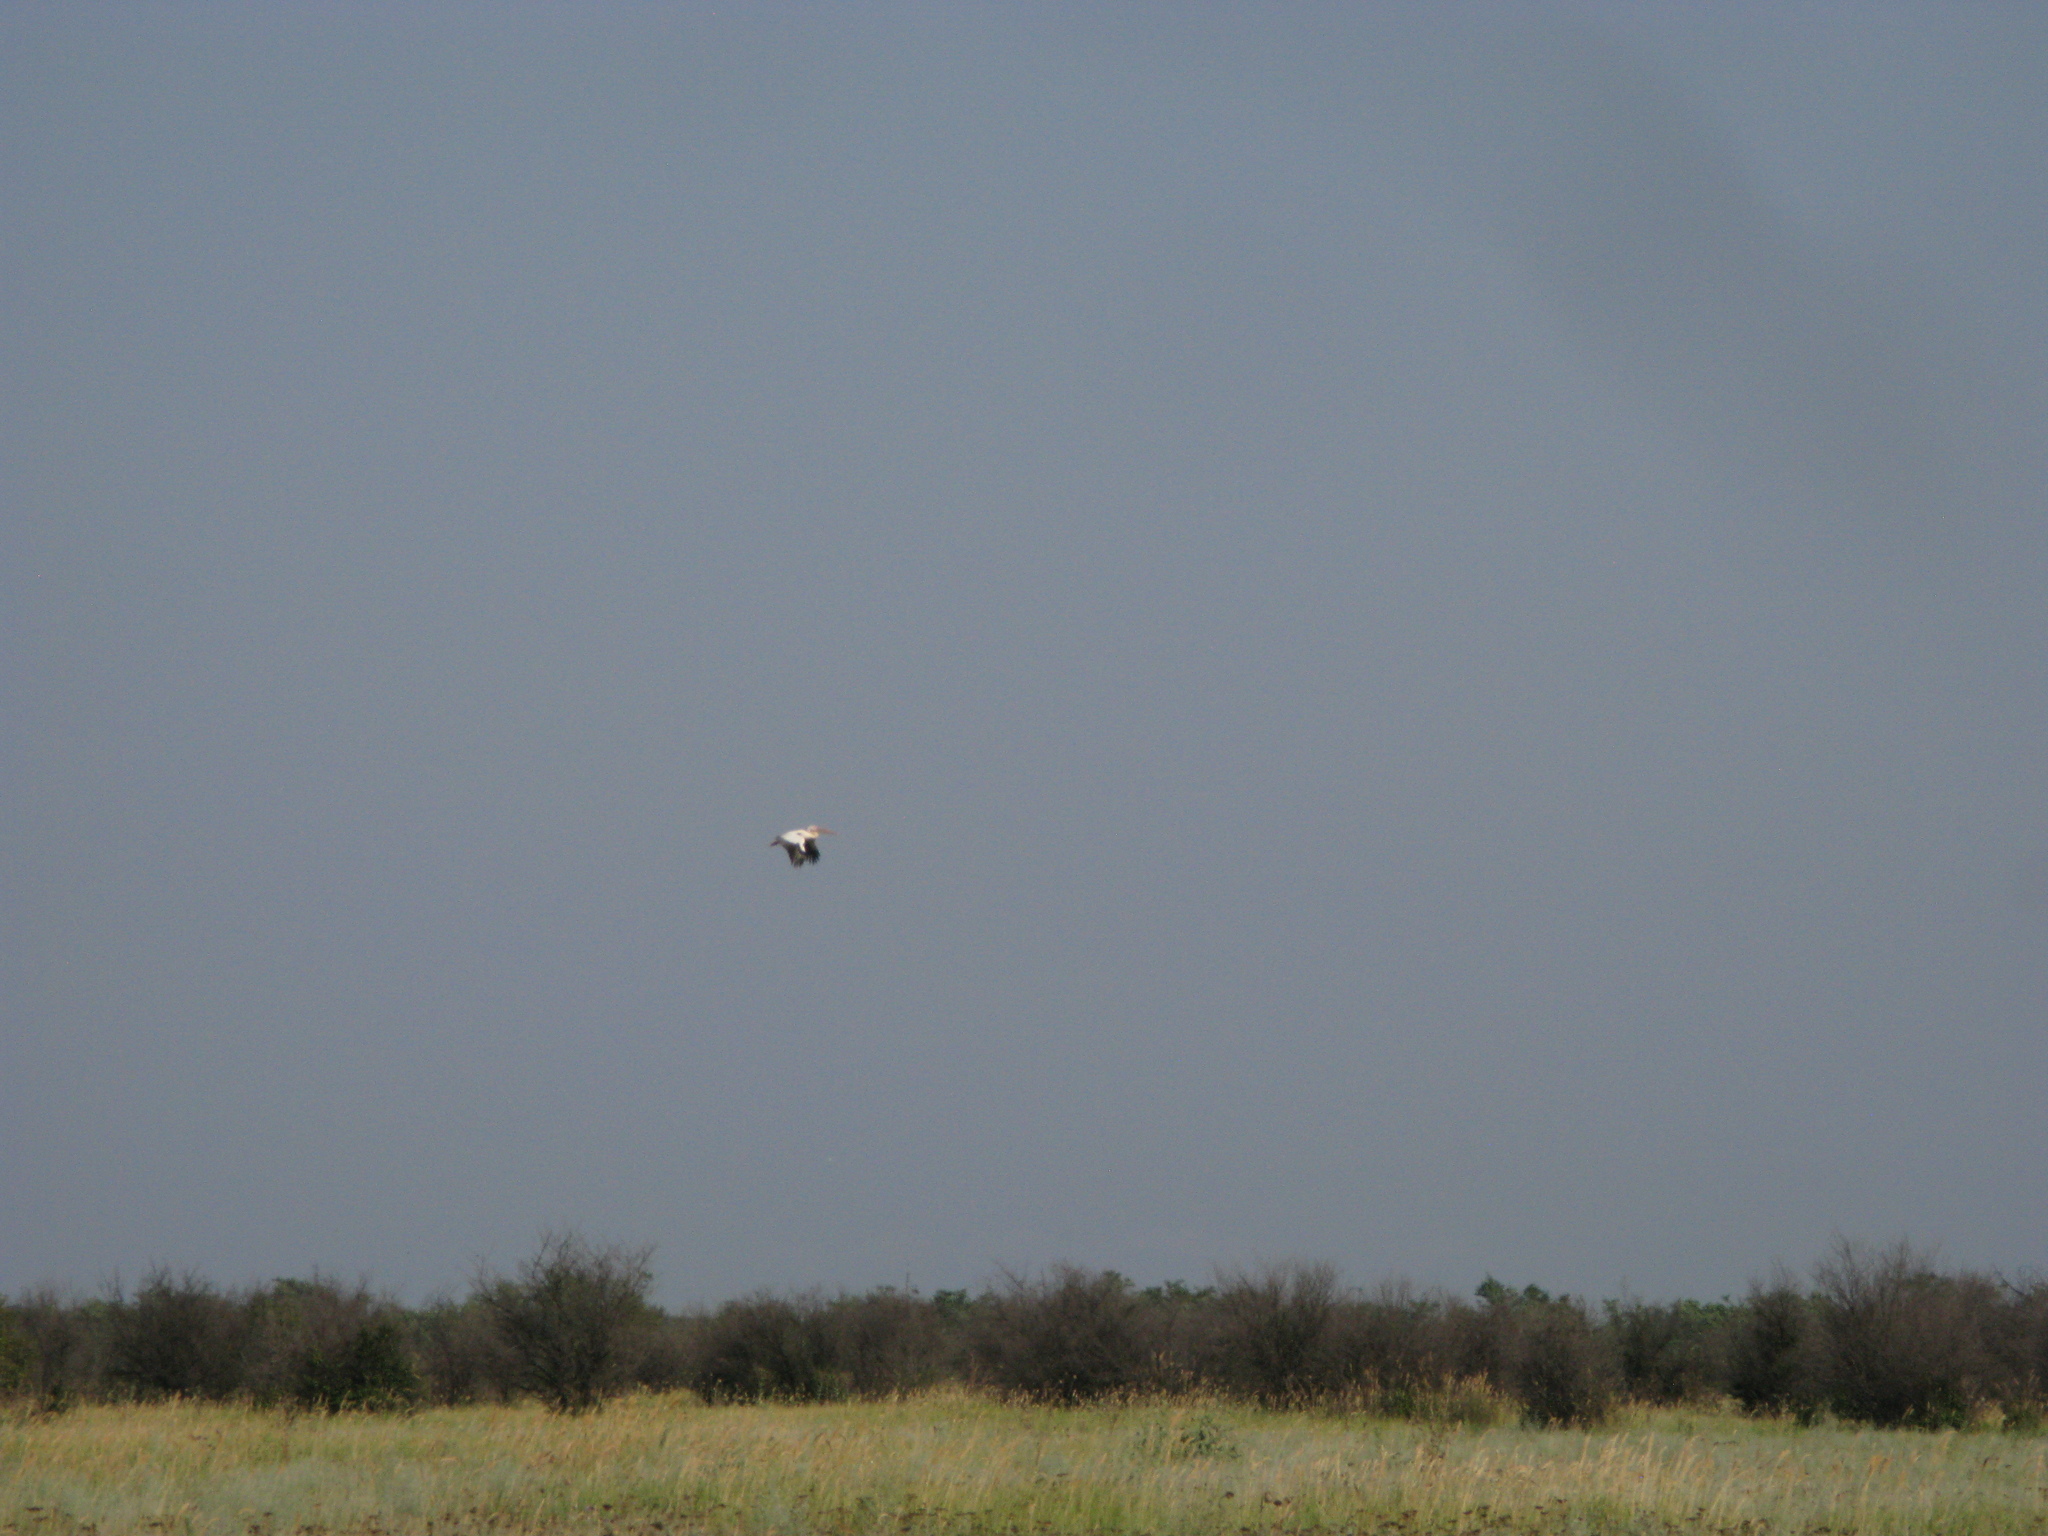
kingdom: Animalia
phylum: Chordata
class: Aves
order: Pelecaniformes
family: Pelecanidae
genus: Pelecanus
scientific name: Pelecanus onocrotalus
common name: Great white pelican
